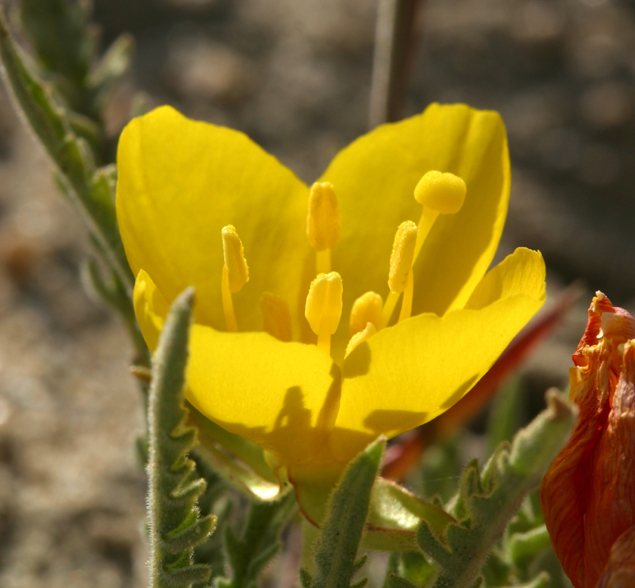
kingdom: Plantae
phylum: Tracheophyta
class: Magnoliopsida
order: Myrtales
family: Onagraceae
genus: Taraxia
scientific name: Taraxia tanacetifolia
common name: Tansyleaf evening primrose
